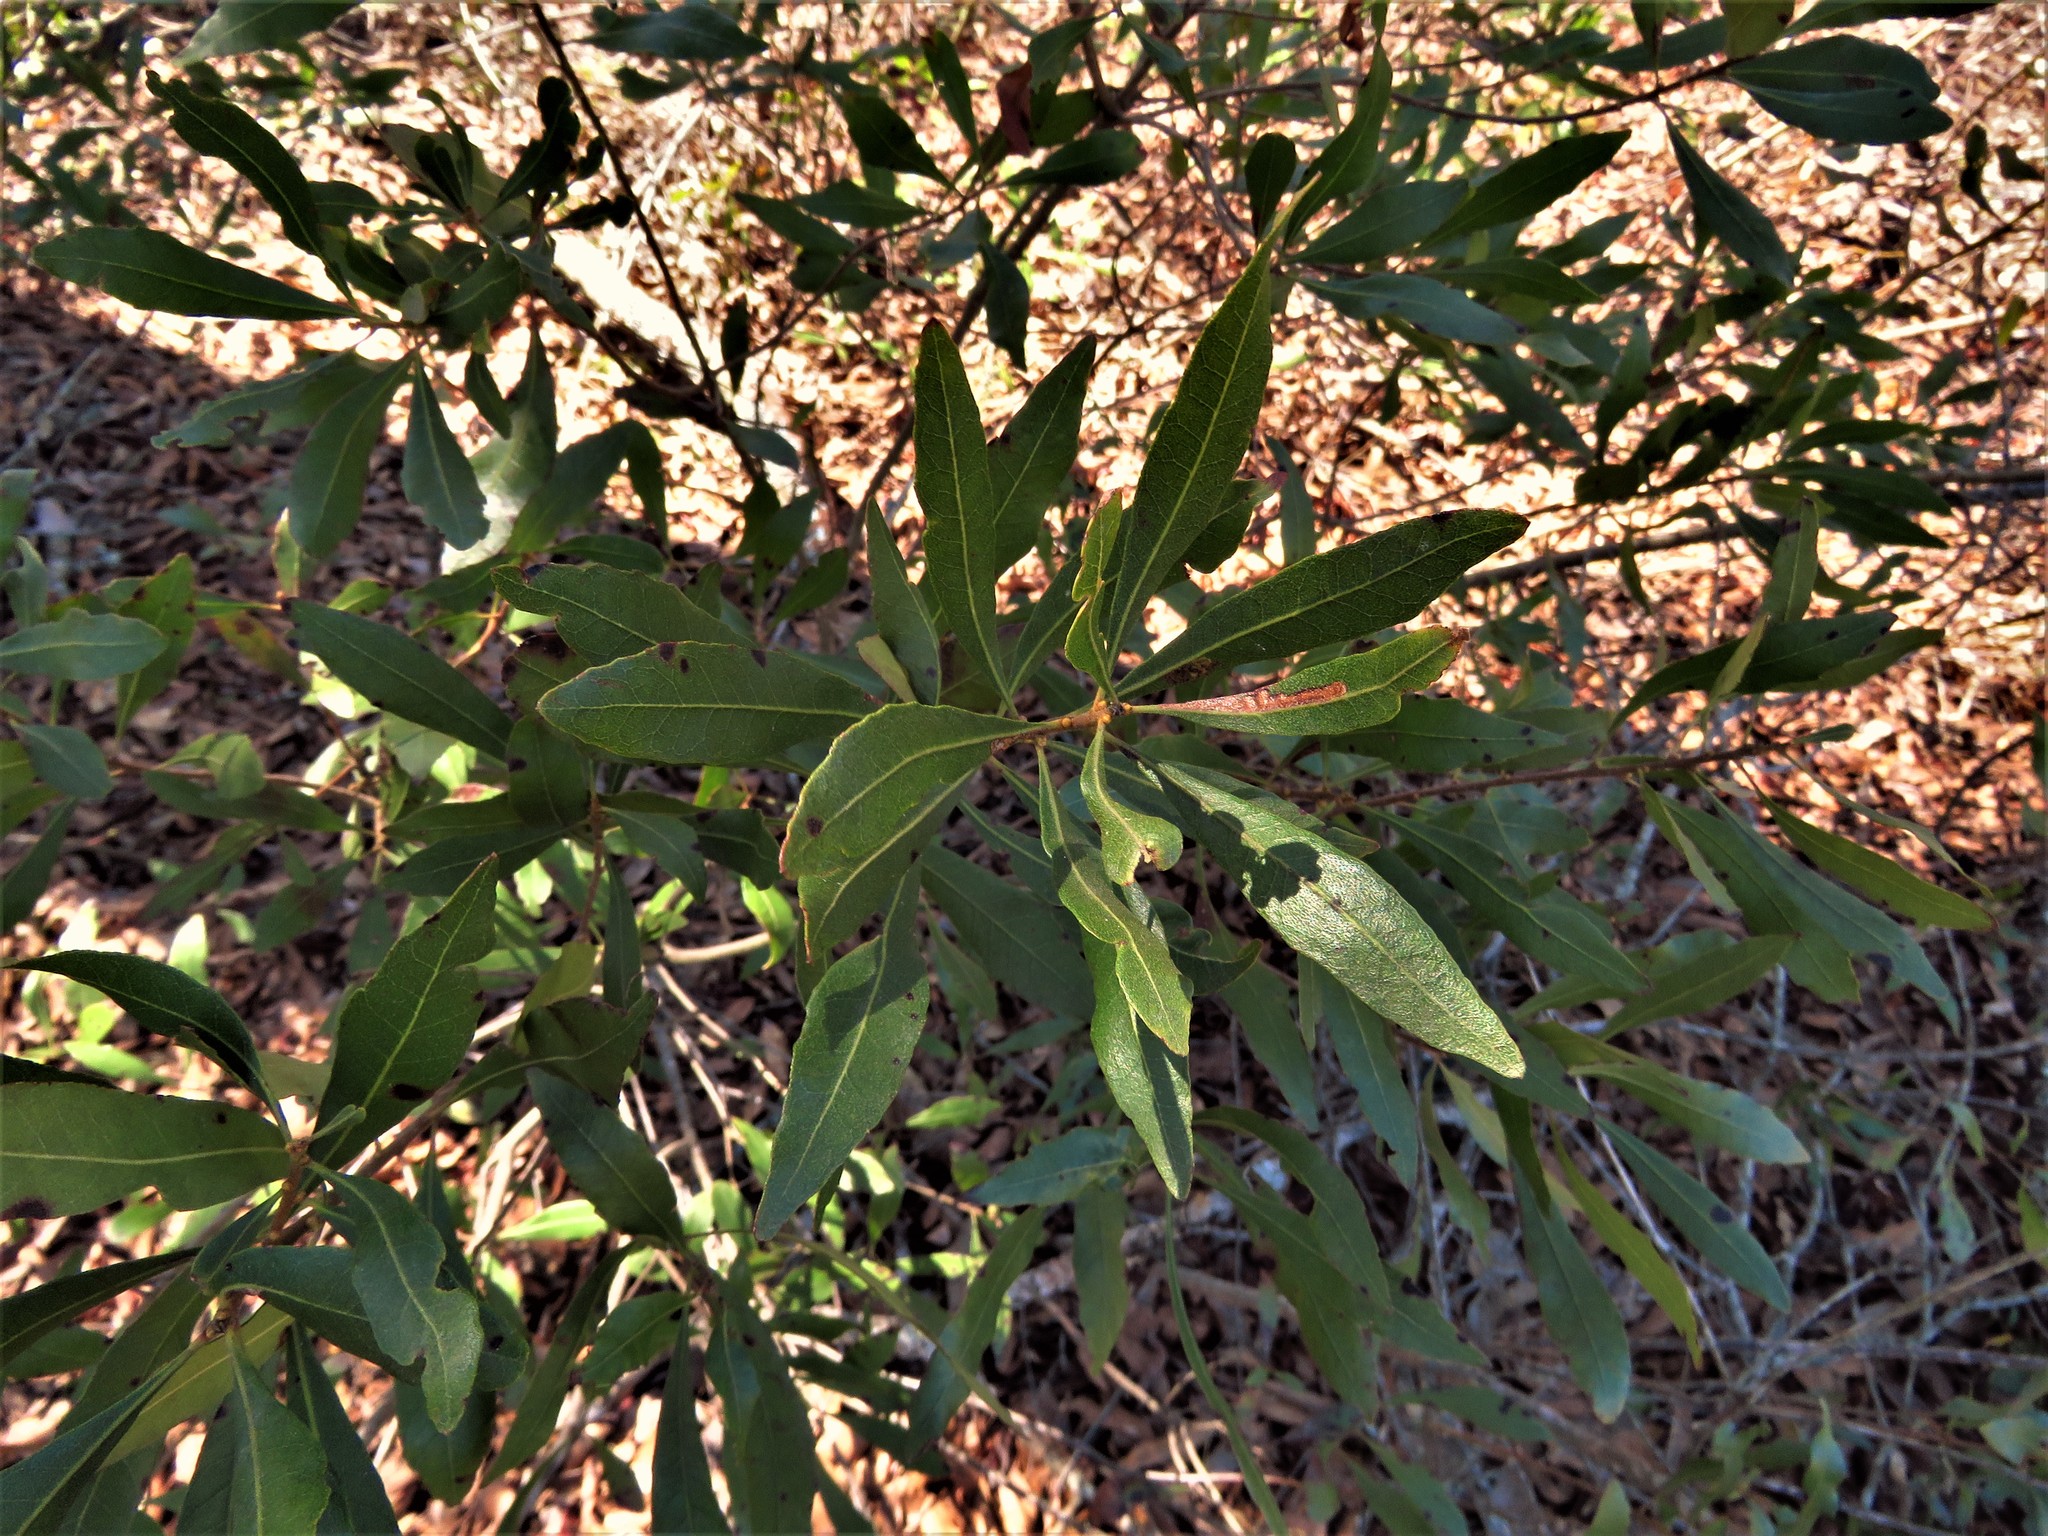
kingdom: Plantae
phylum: Tracheophyta
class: Magnoliopsida
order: Fagales
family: Myricaceae
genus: Morella
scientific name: Morella cerifera
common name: Wax myrtle
